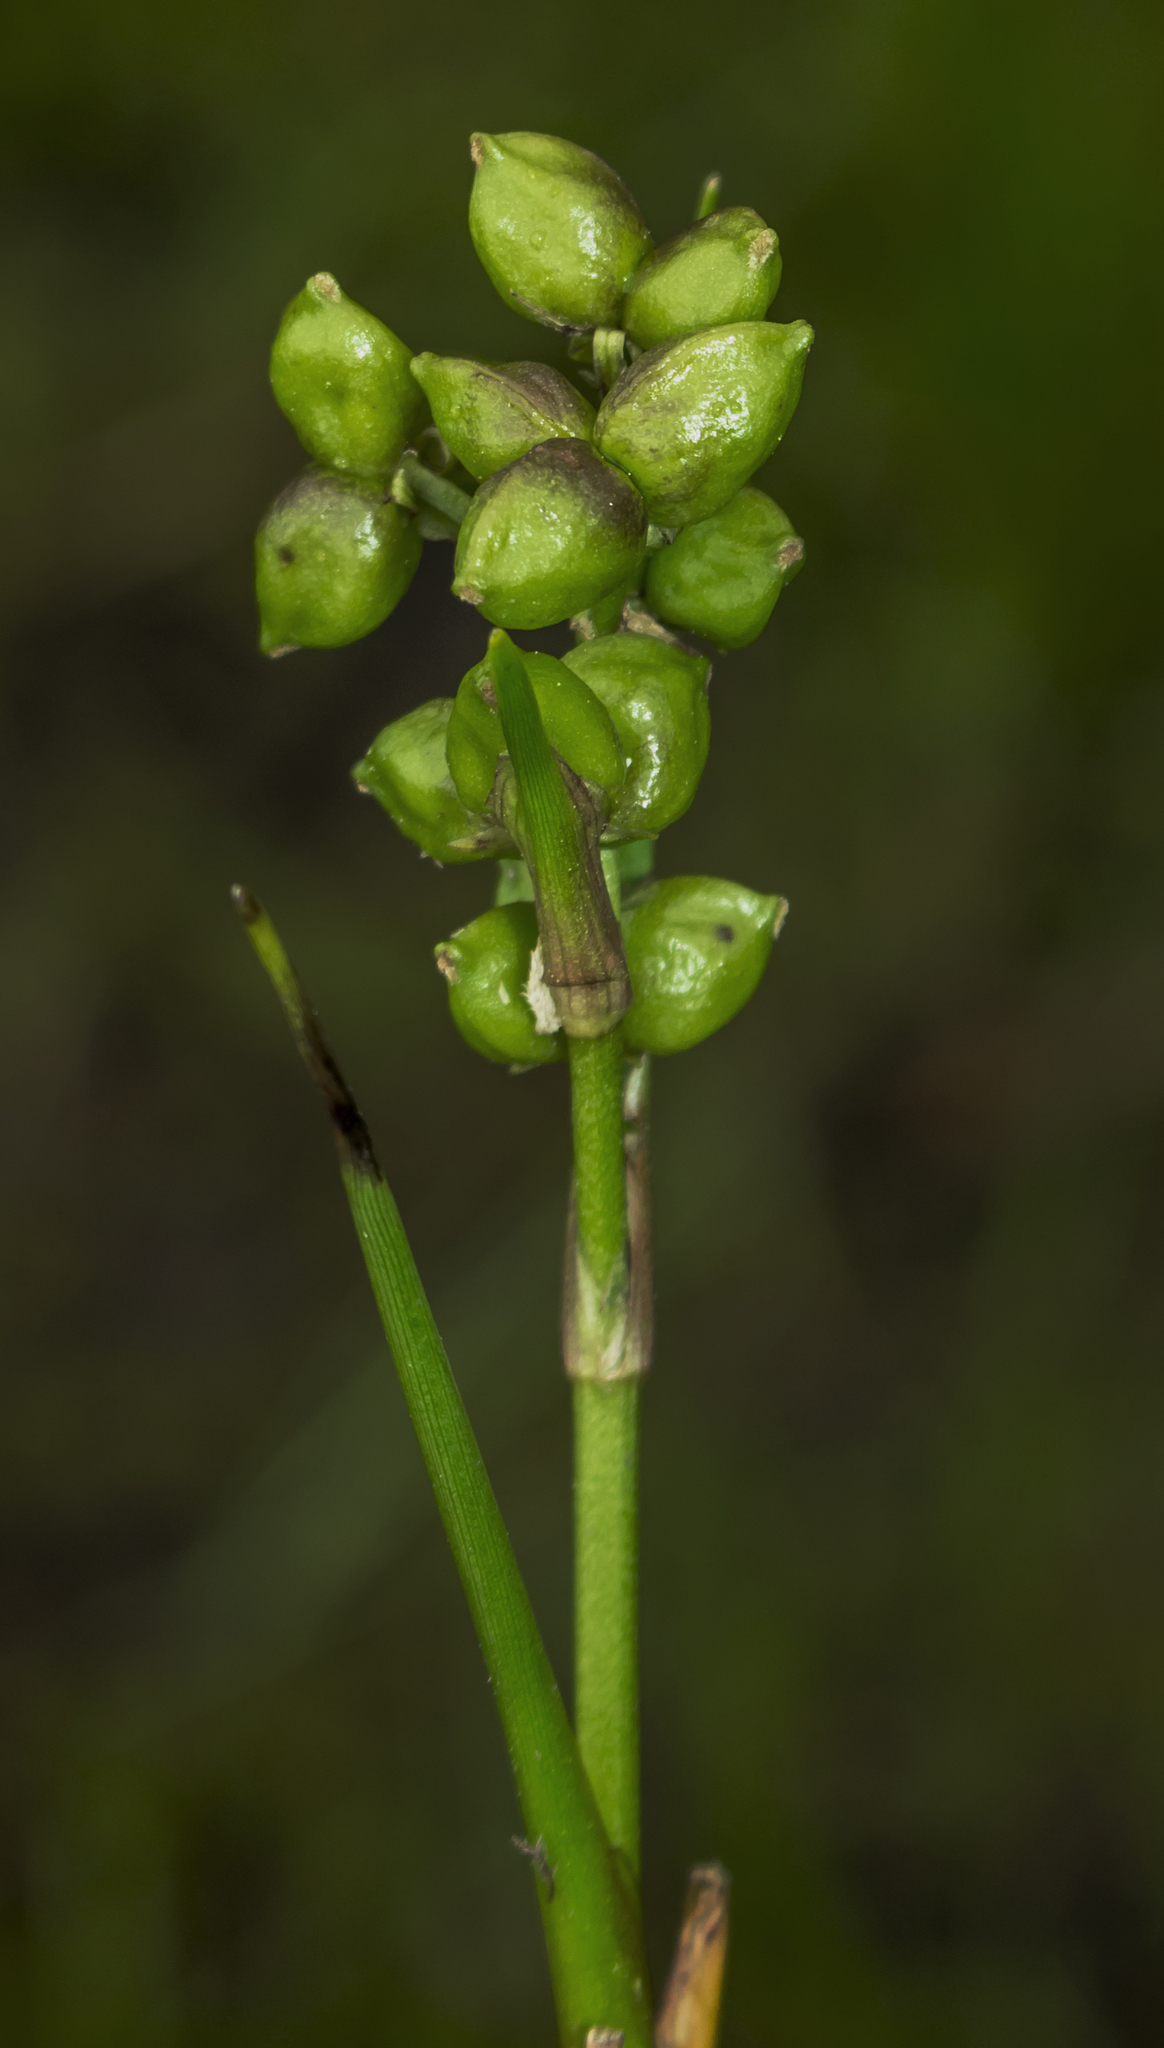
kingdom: Plantae
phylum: Tracheophyta
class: Liliopsida
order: Alismatales
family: Scheuchzeriaceae
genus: Scheuchzeria
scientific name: Scheuchzeria palustris
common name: Rannoch-rush
